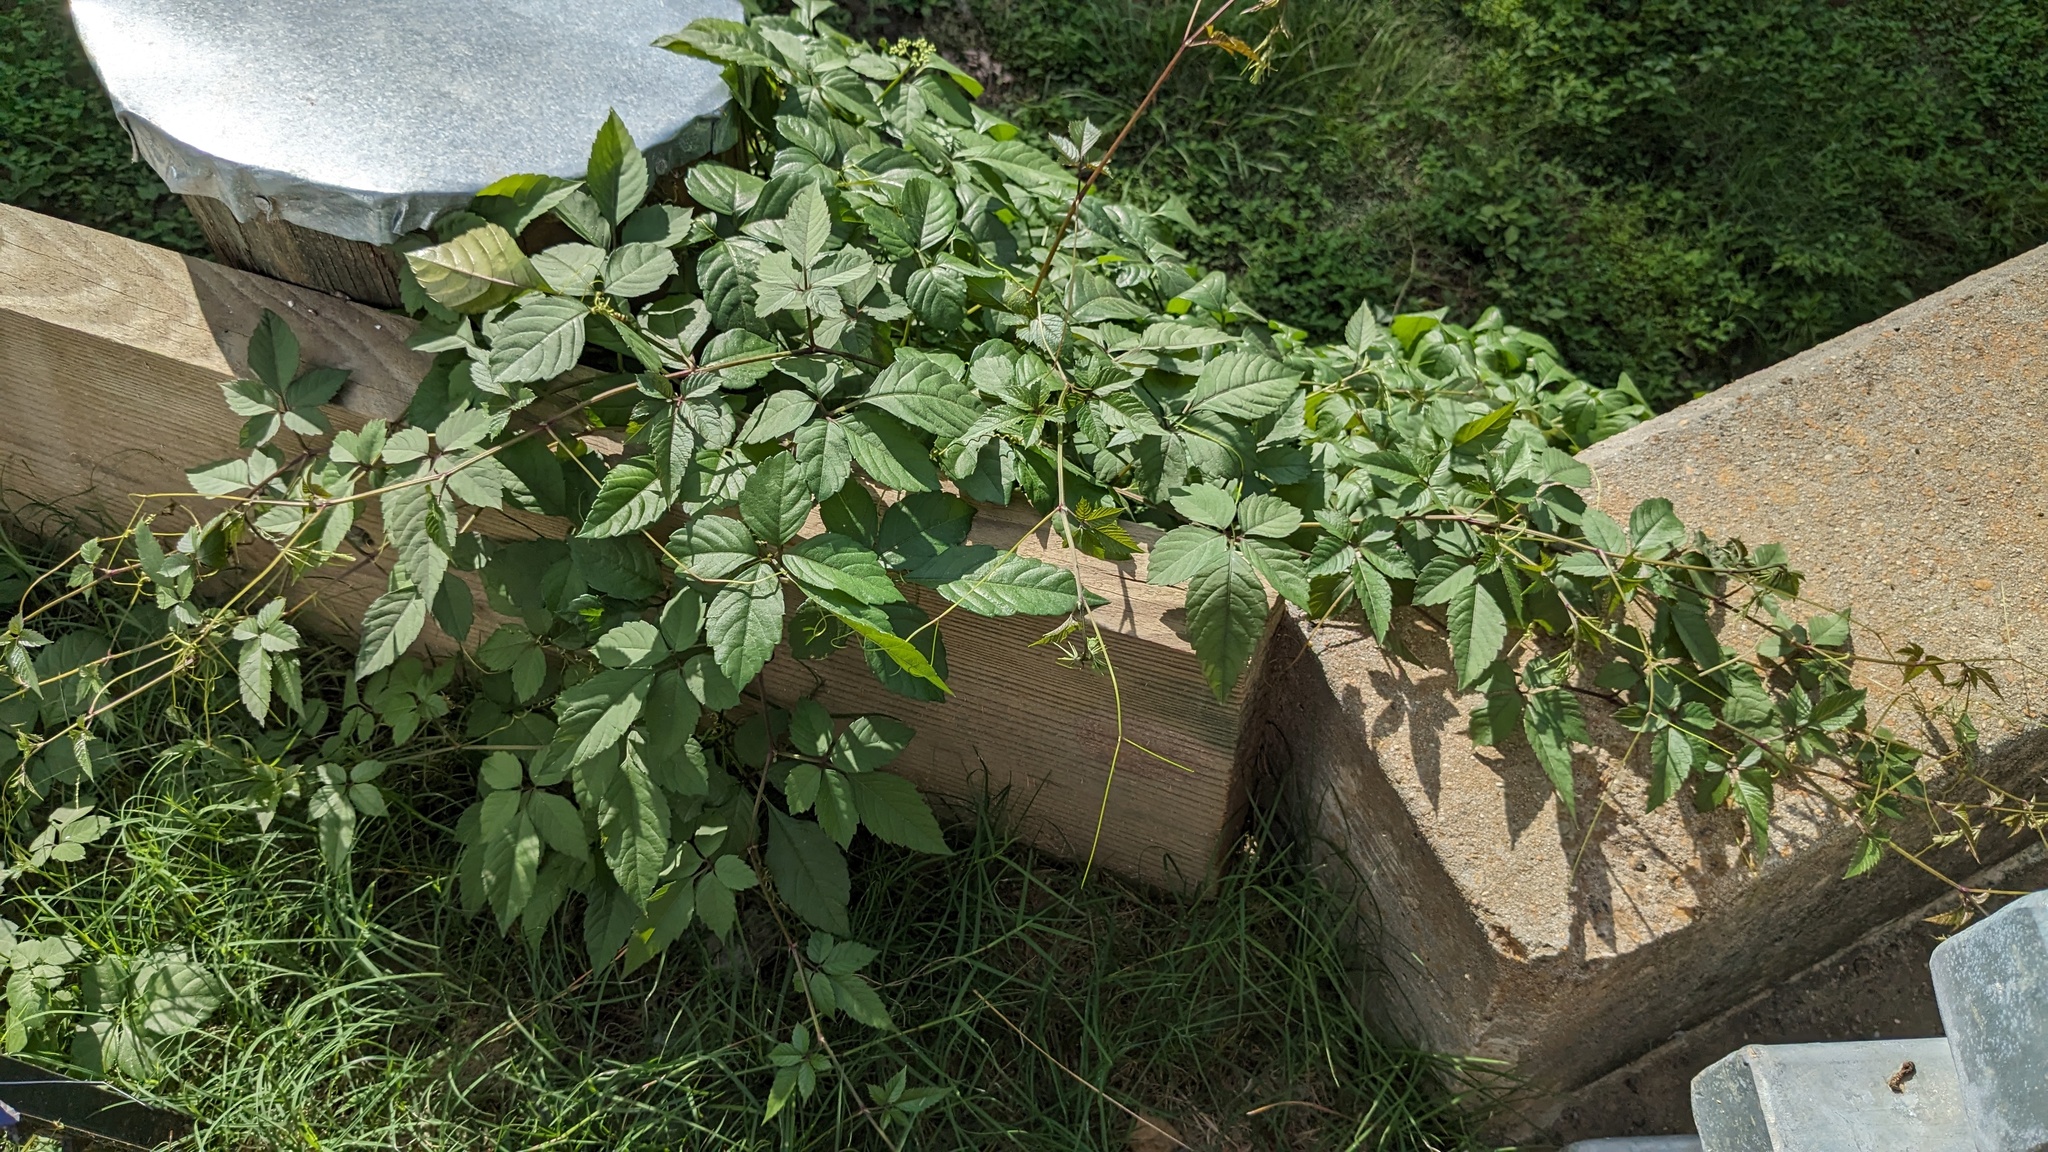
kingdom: Plantae
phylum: Tracheophyta
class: Magnoliopsida
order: Vitales
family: Vitaceae
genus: Causonis
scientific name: Causonis japonica
